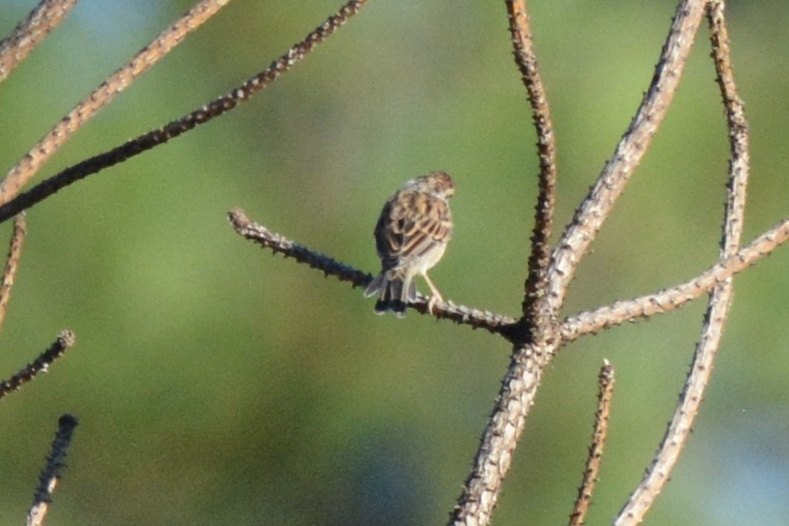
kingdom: Animalia
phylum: Chordata
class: Aves
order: Passeriformes
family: Passerellidae
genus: Spizella
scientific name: Spizella passerina
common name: Chipping sparrow
